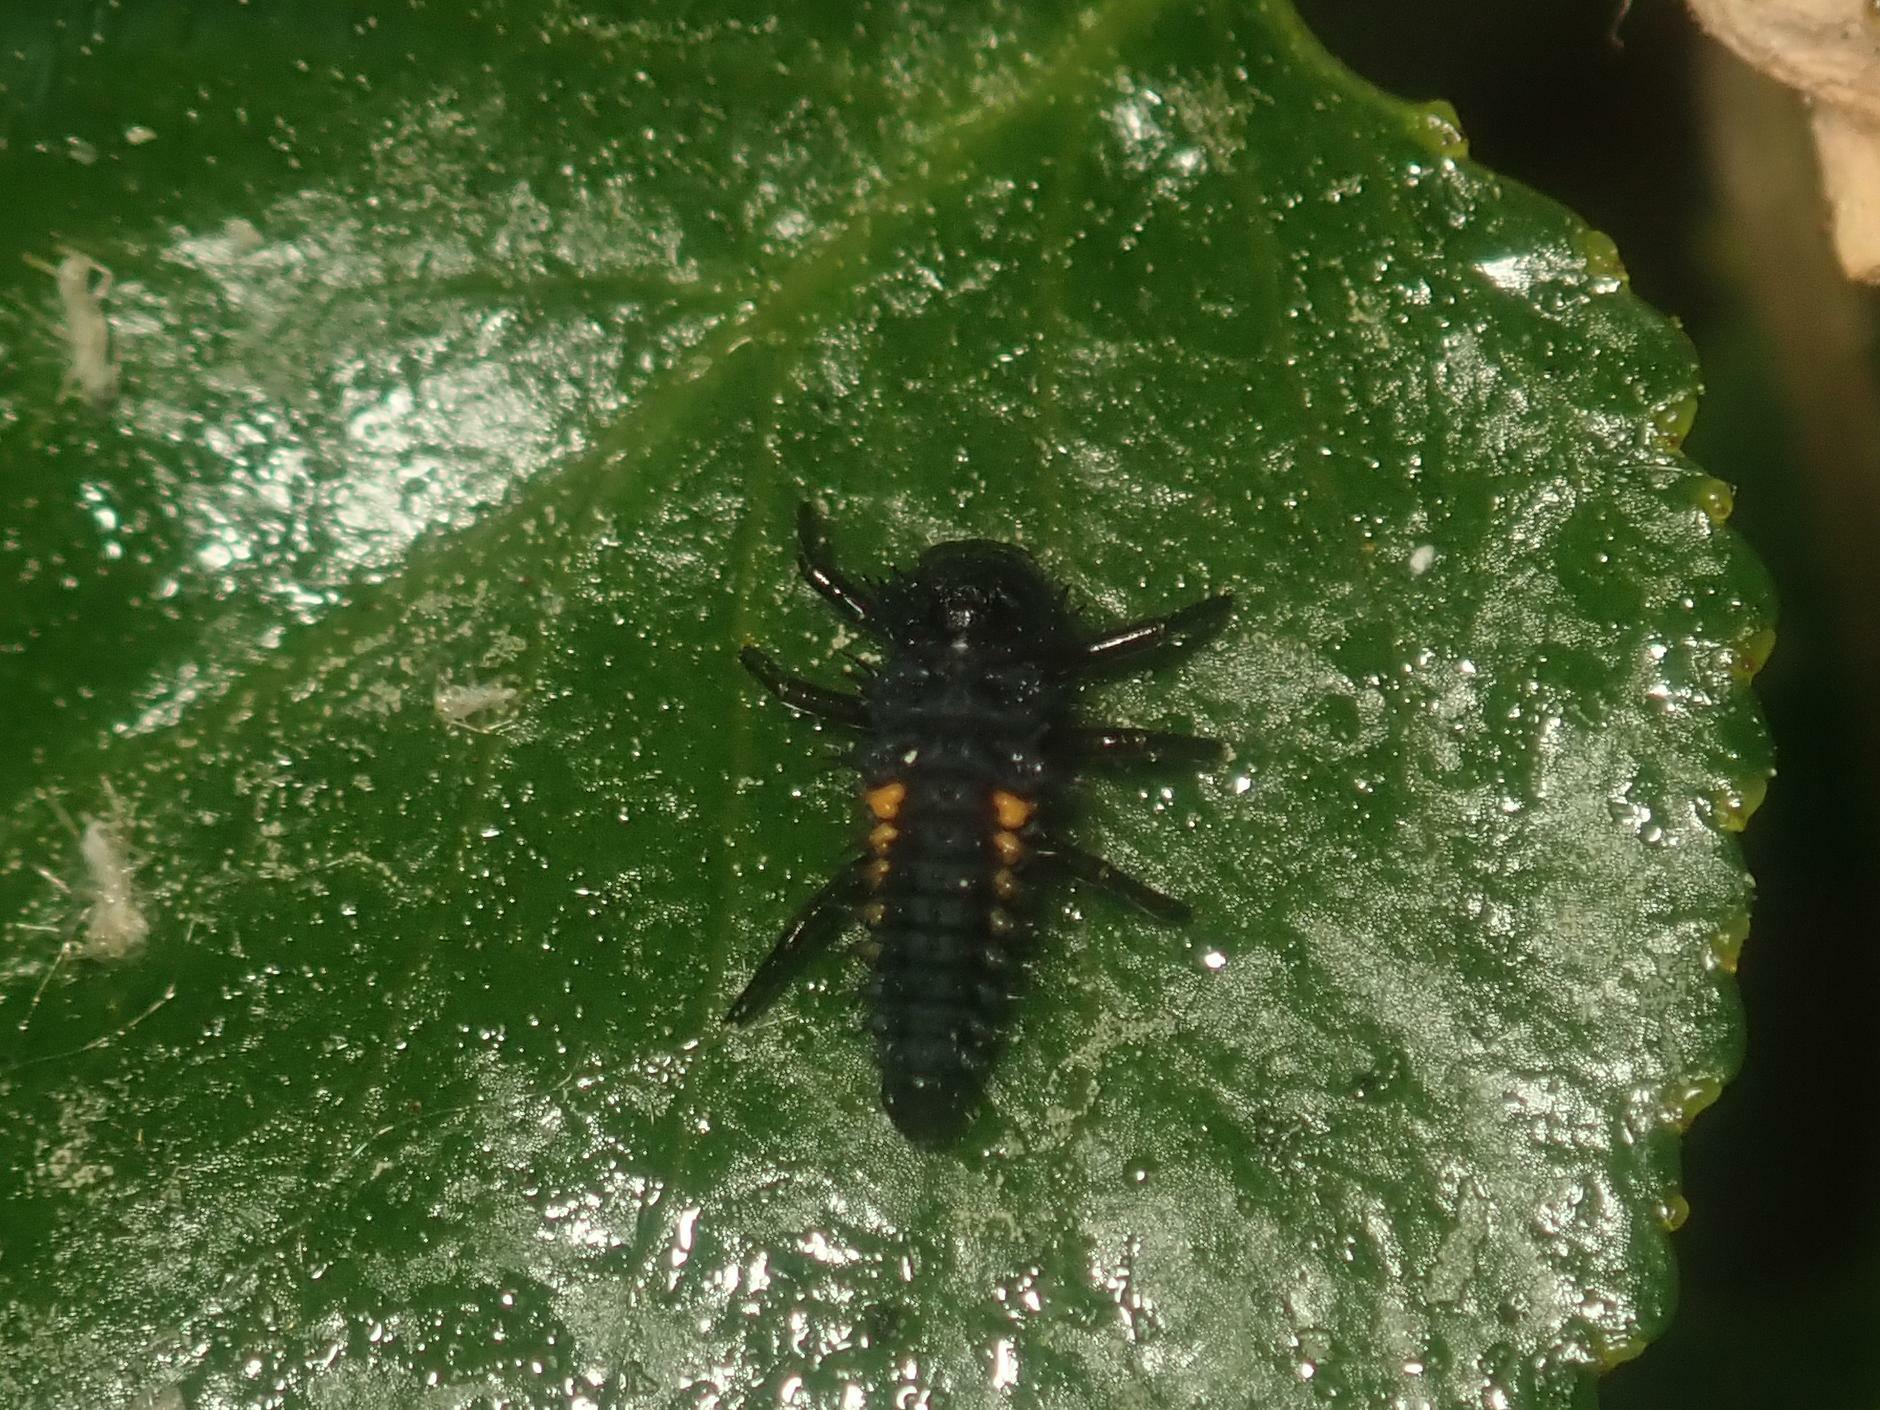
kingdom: Animalia
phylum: Arthropoda
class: Insecta
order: Coleoptera
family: Coccinellidae
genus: Harmonia
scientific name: Harmonia axyridis
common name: Harlequin ladybird
